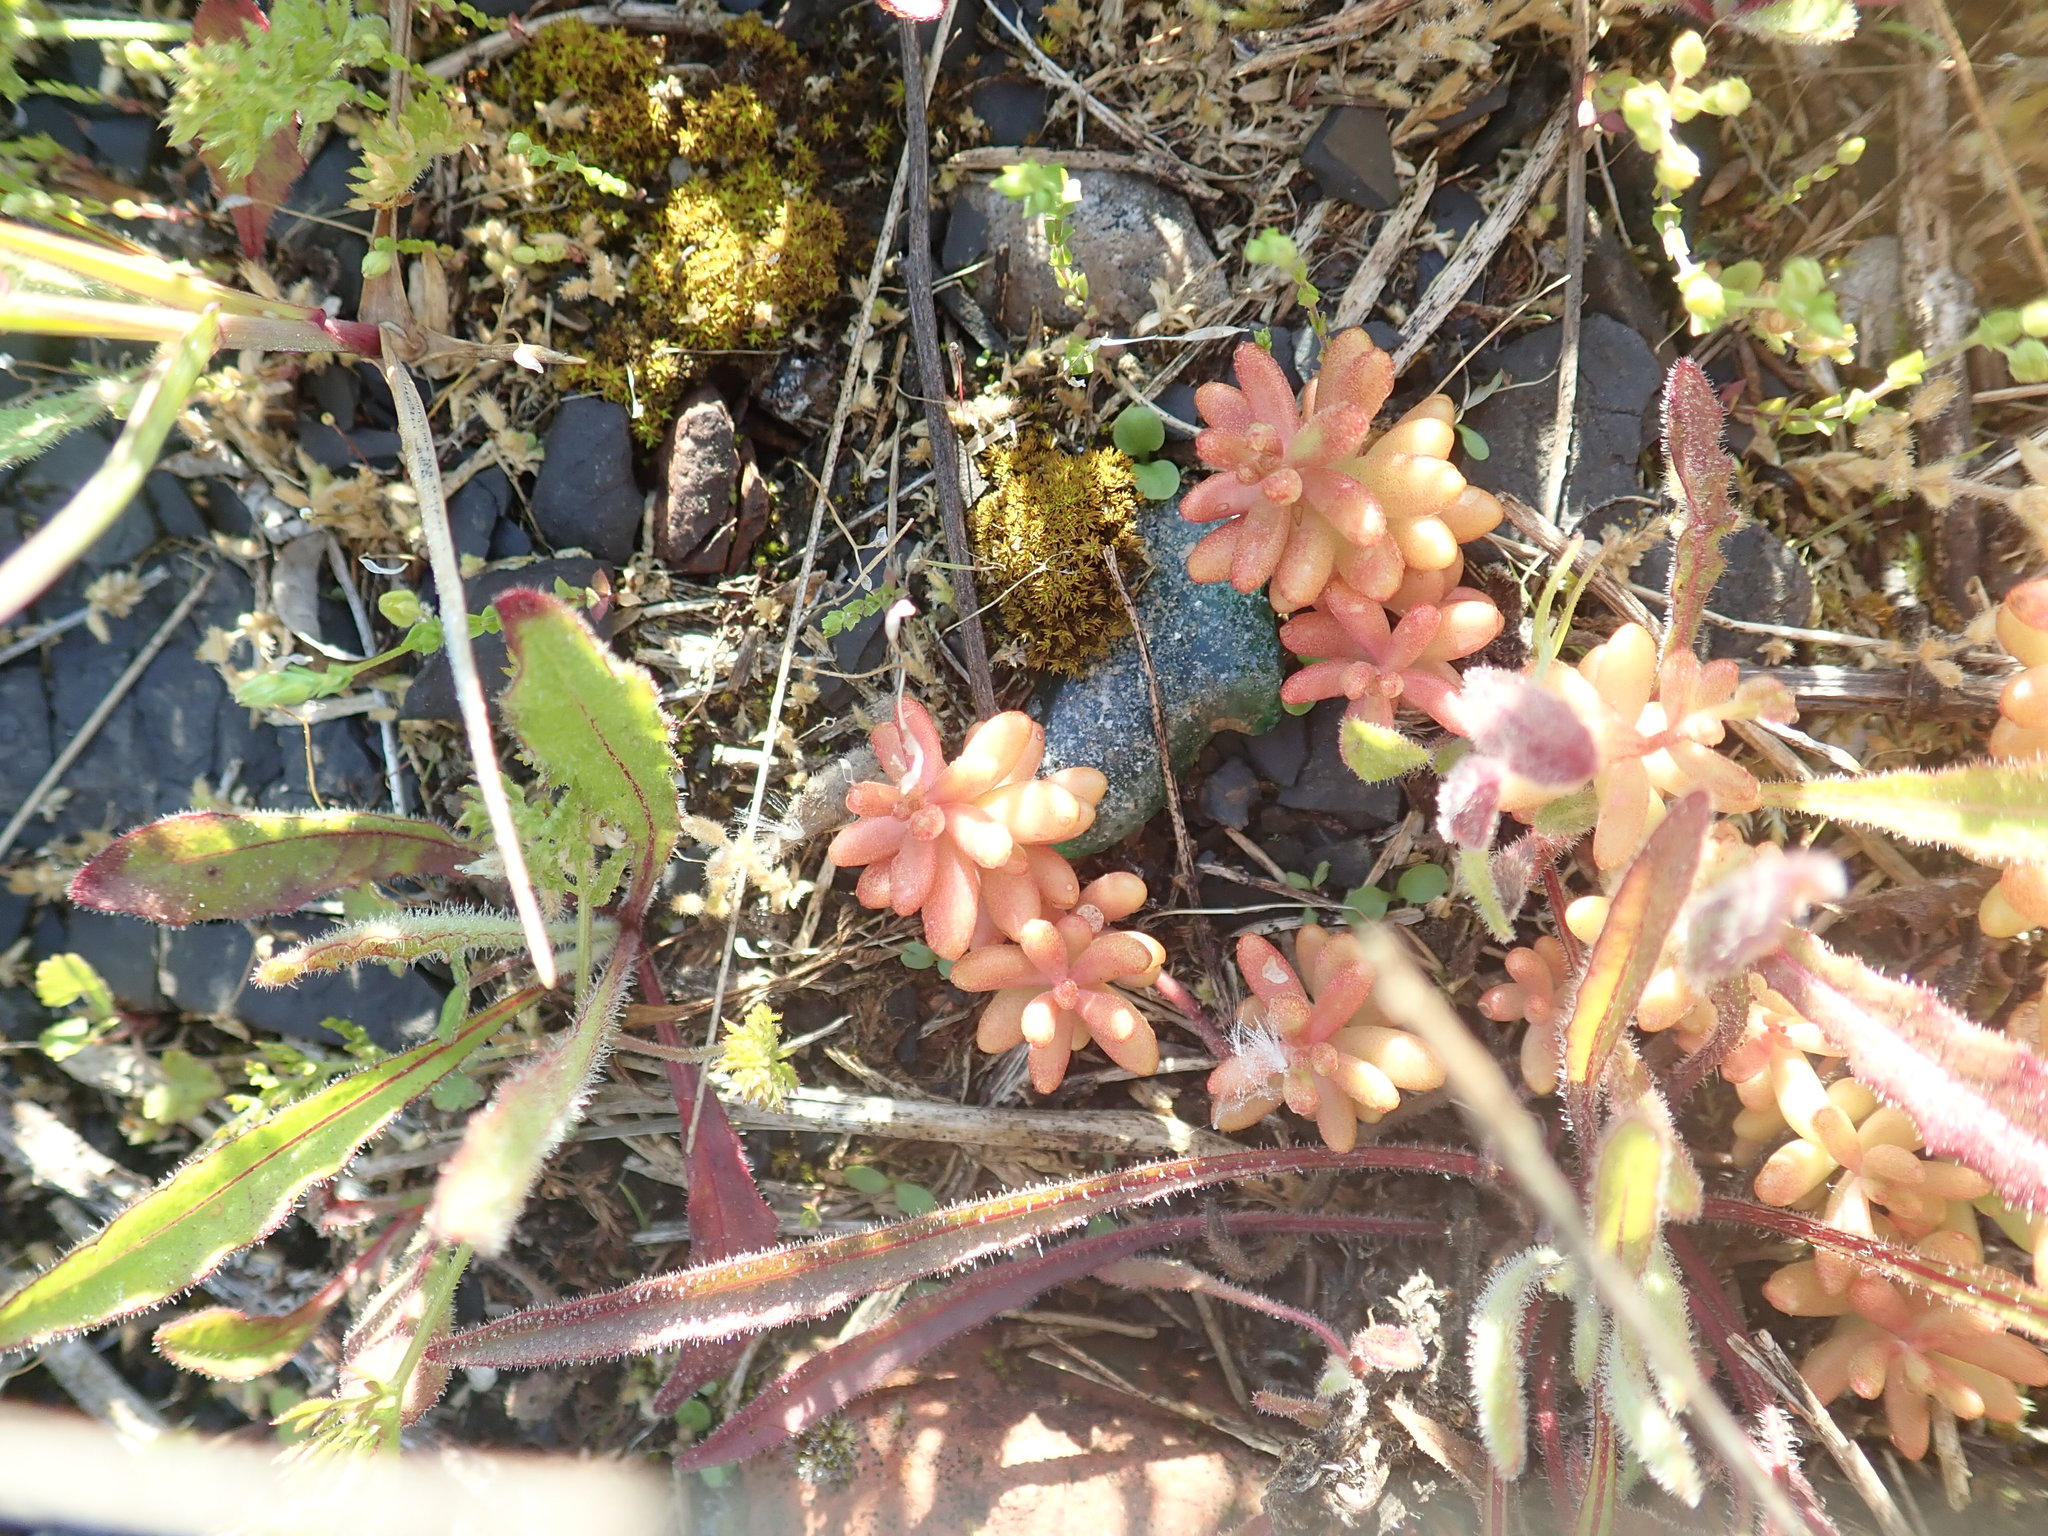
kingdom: Plantae
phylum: Tracheophyta
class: Magnoliopsida
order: Saxifragales
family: Crassulaceae
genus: Sedum
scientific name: Sedum album
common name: White stonecrop
